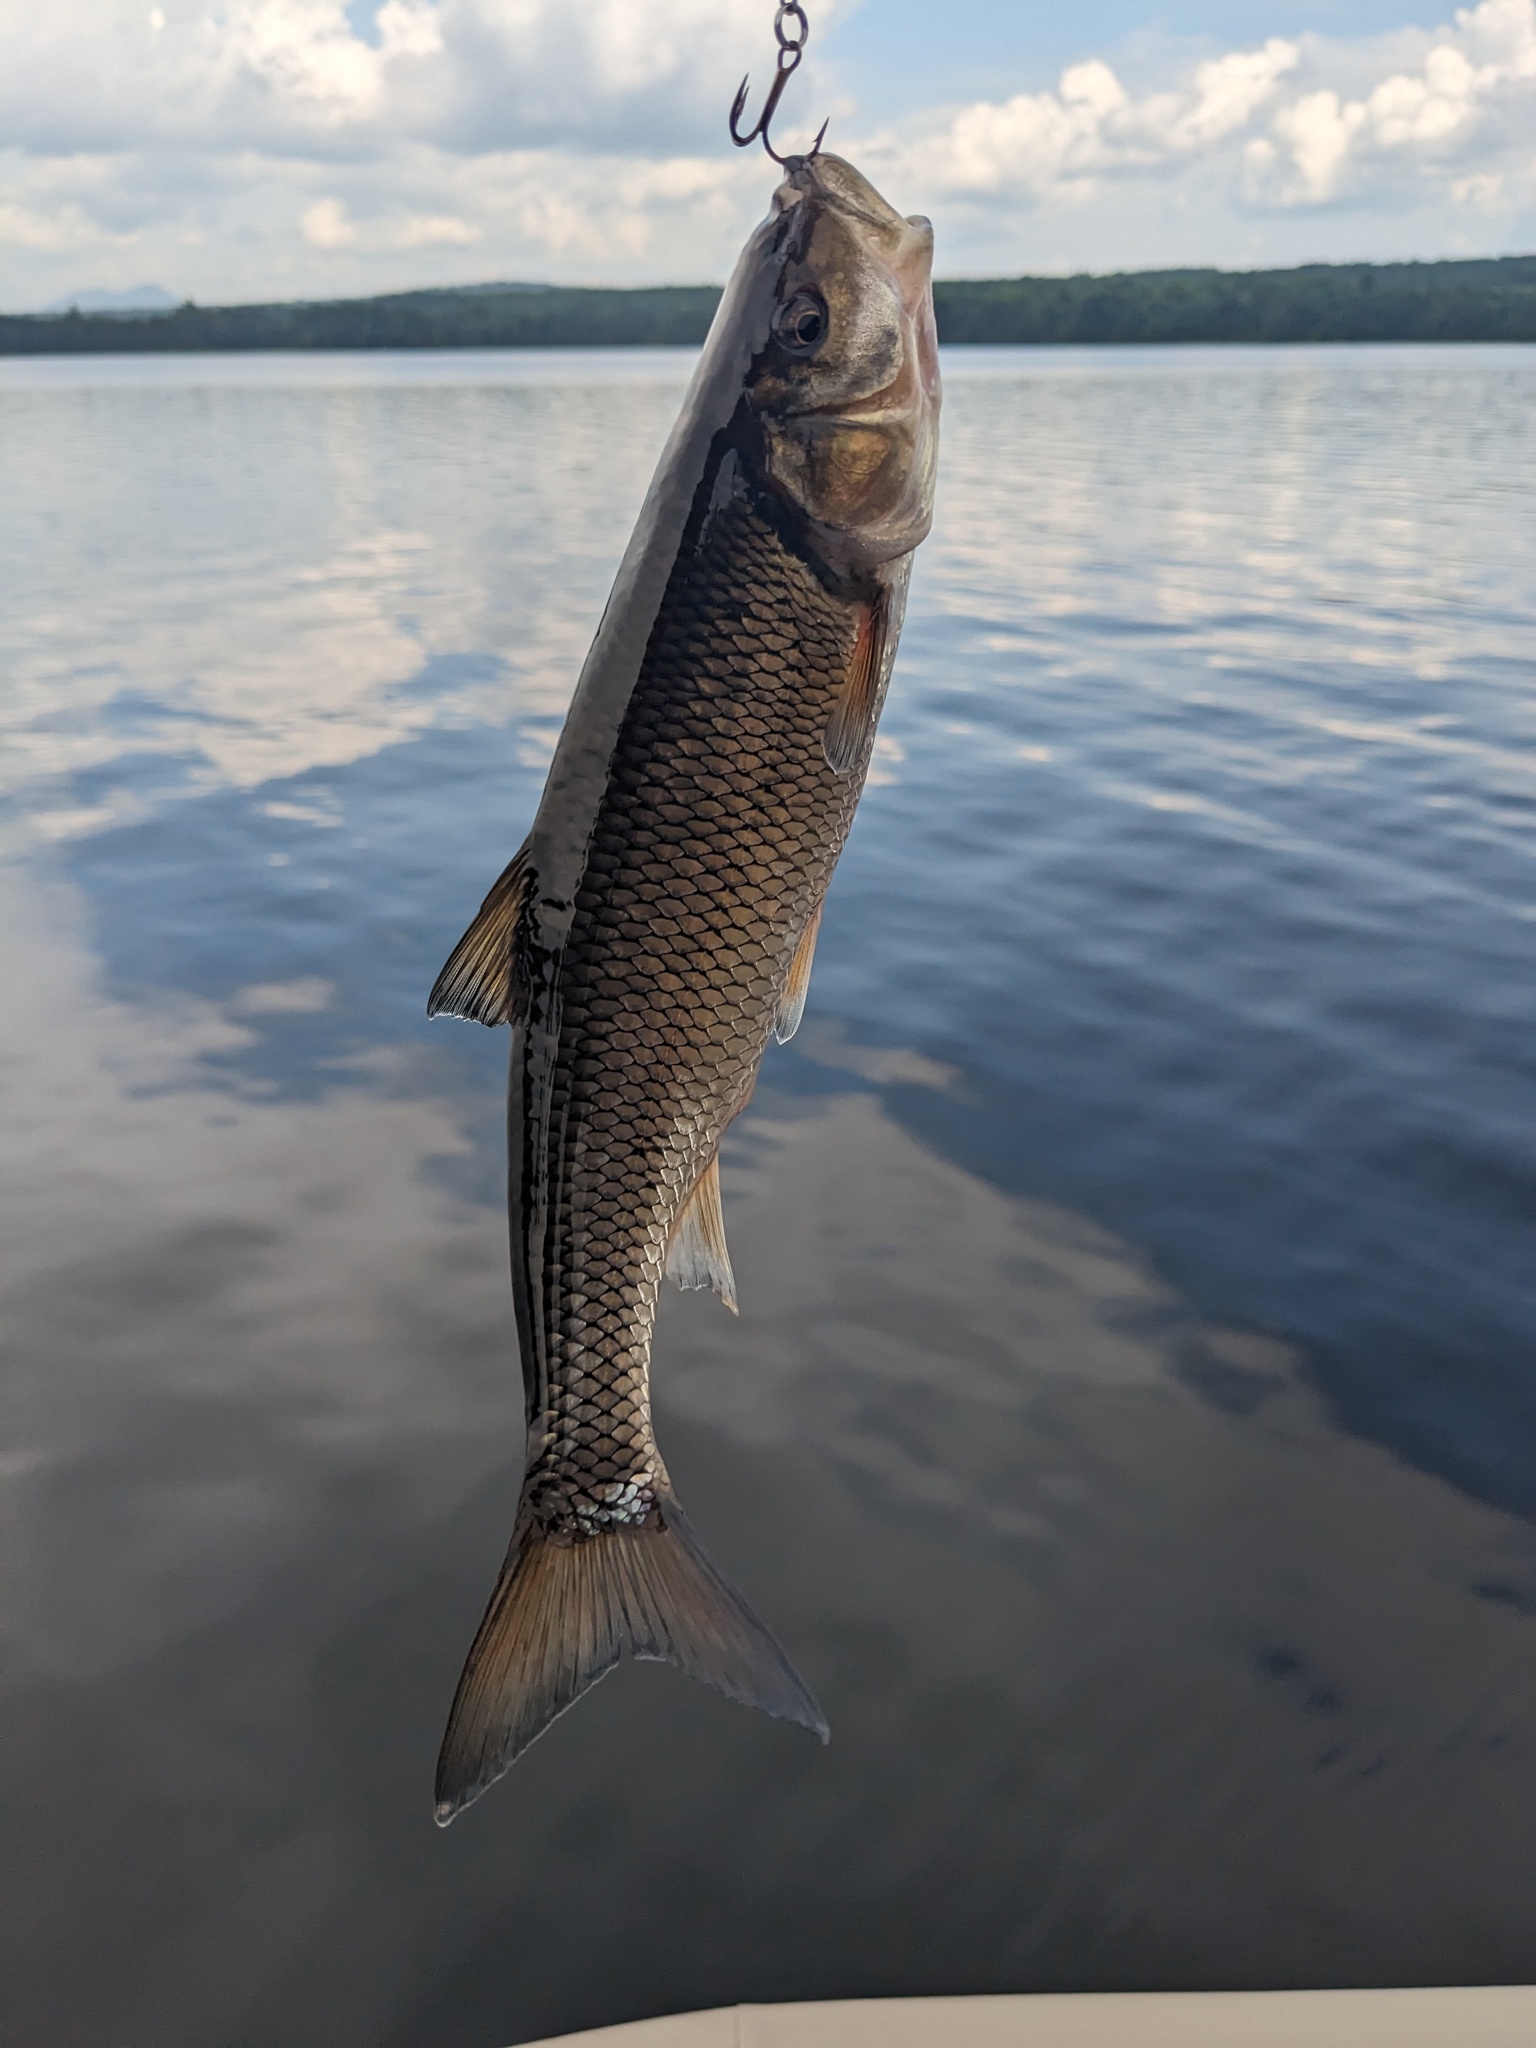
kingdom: Animalia
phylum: Chordata
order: Cypriniformes
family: Cyprinidae
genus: Semotilus
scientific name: Semotilus corporalis
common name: Fallfish
